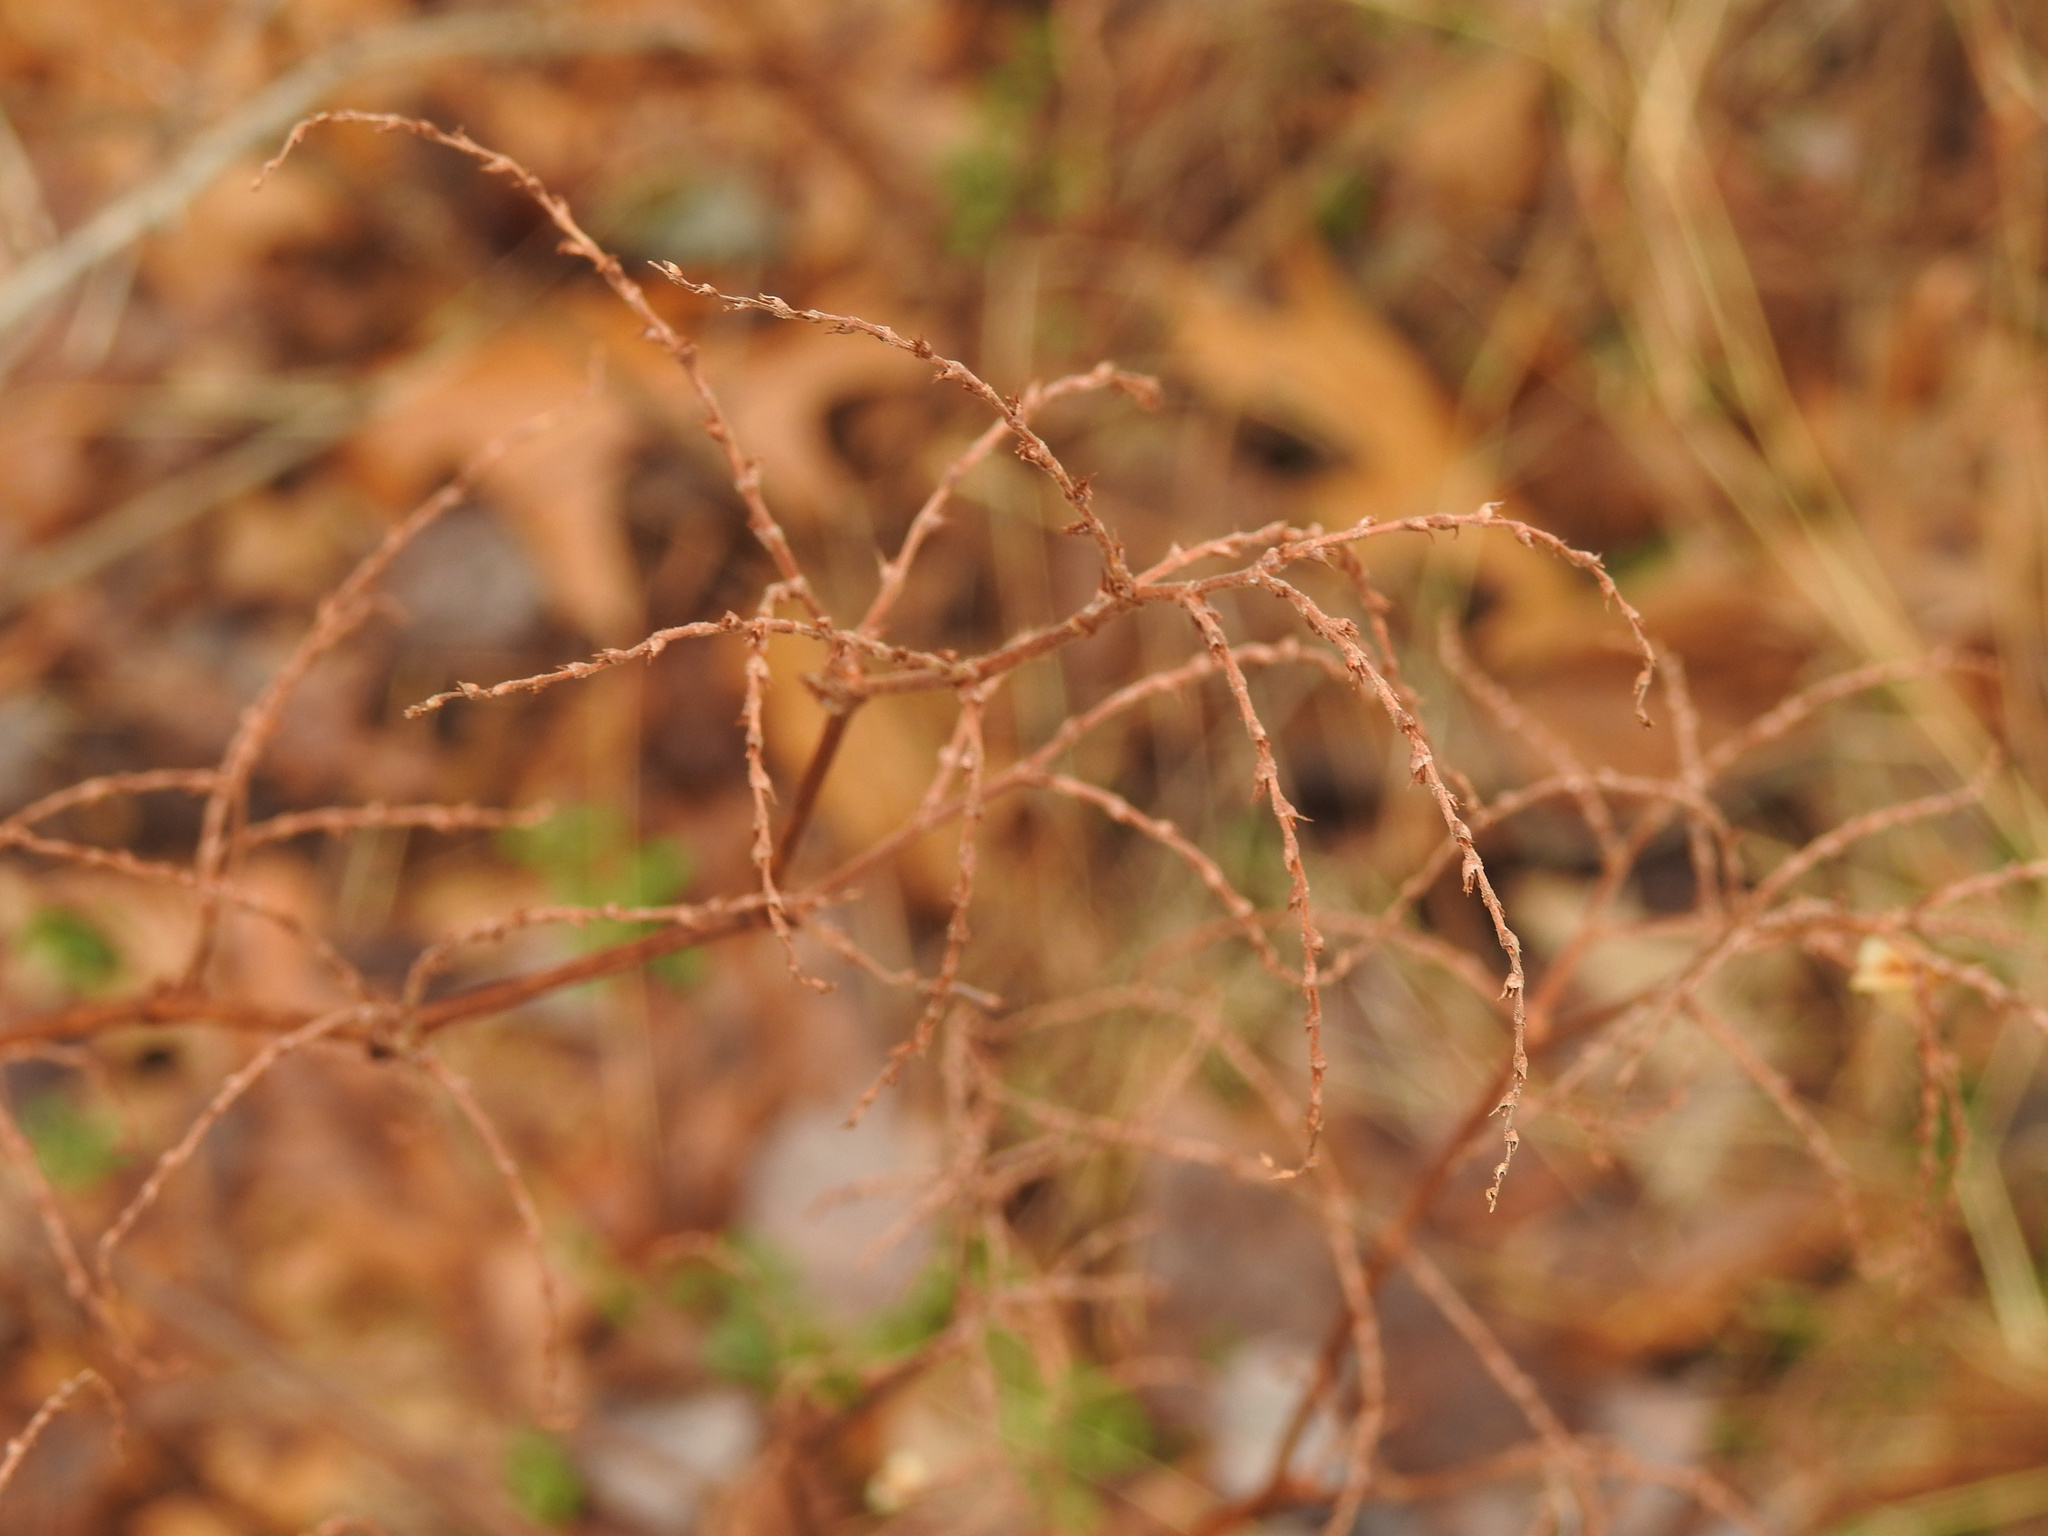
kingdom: Plantae
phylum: Tracheophyta
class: Magnoliopsida
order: Lamiales
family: Verbenaceae
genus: Verbena
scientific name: Verbena urticifolia
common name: Nettle-leaved vervain
